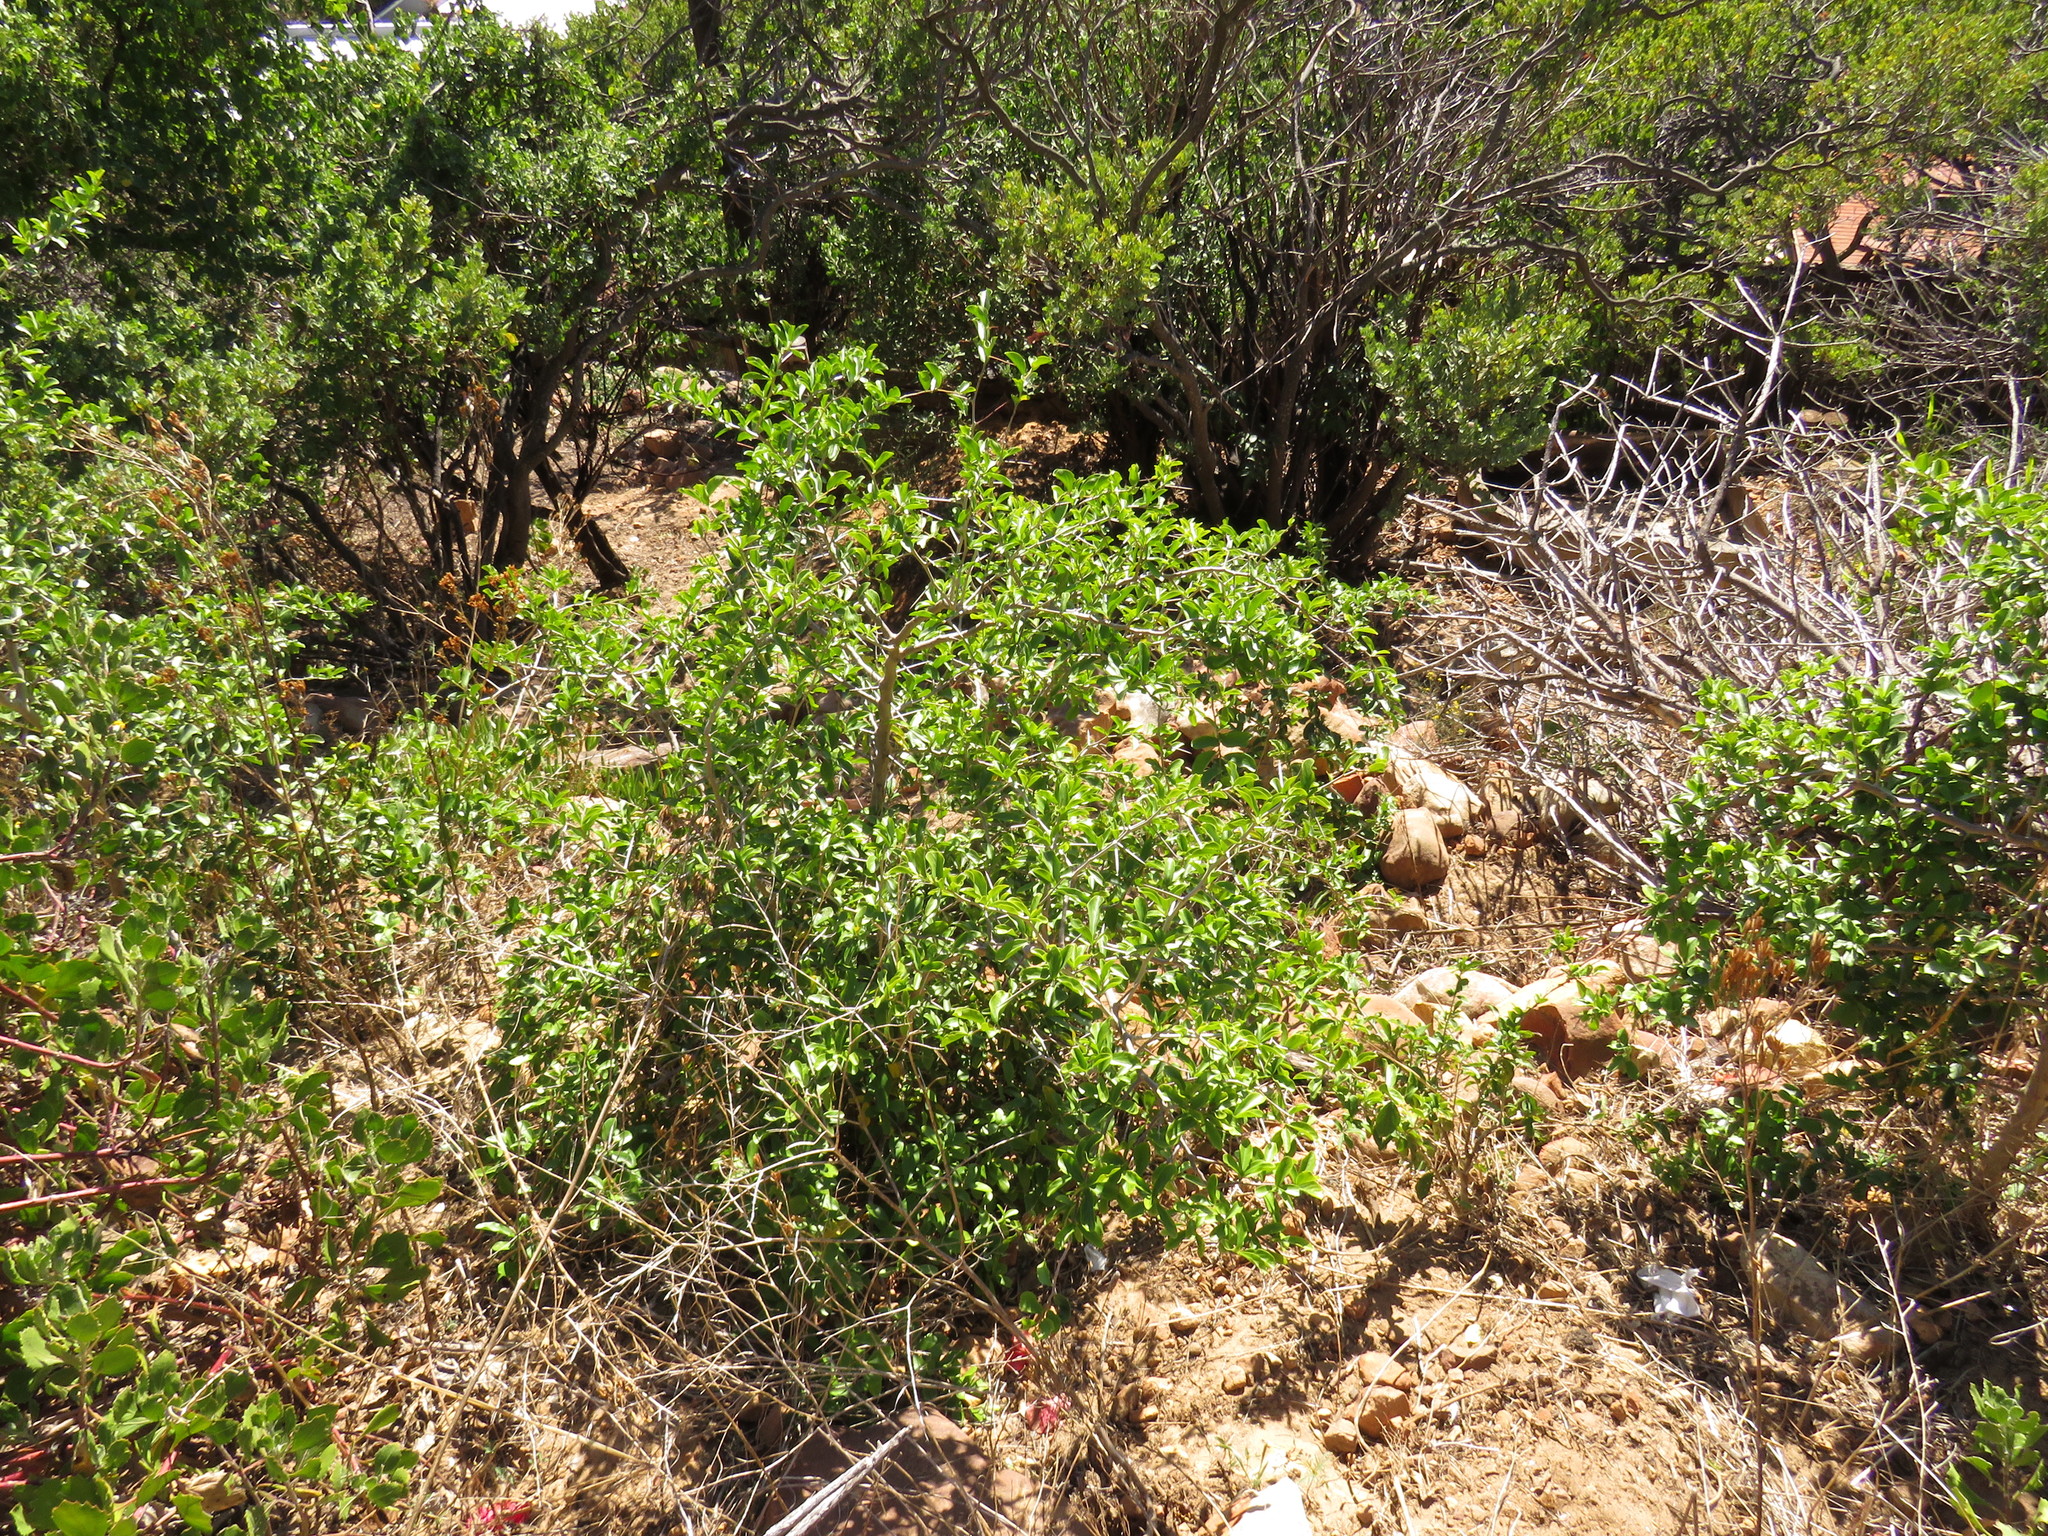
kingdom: Plantae
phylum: Tracheophyta
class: Magnoliopsida
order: Malpighiales
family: Salicaceae
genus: Dovyalis
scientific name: Dovyalis caffra
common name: Kei-apple
